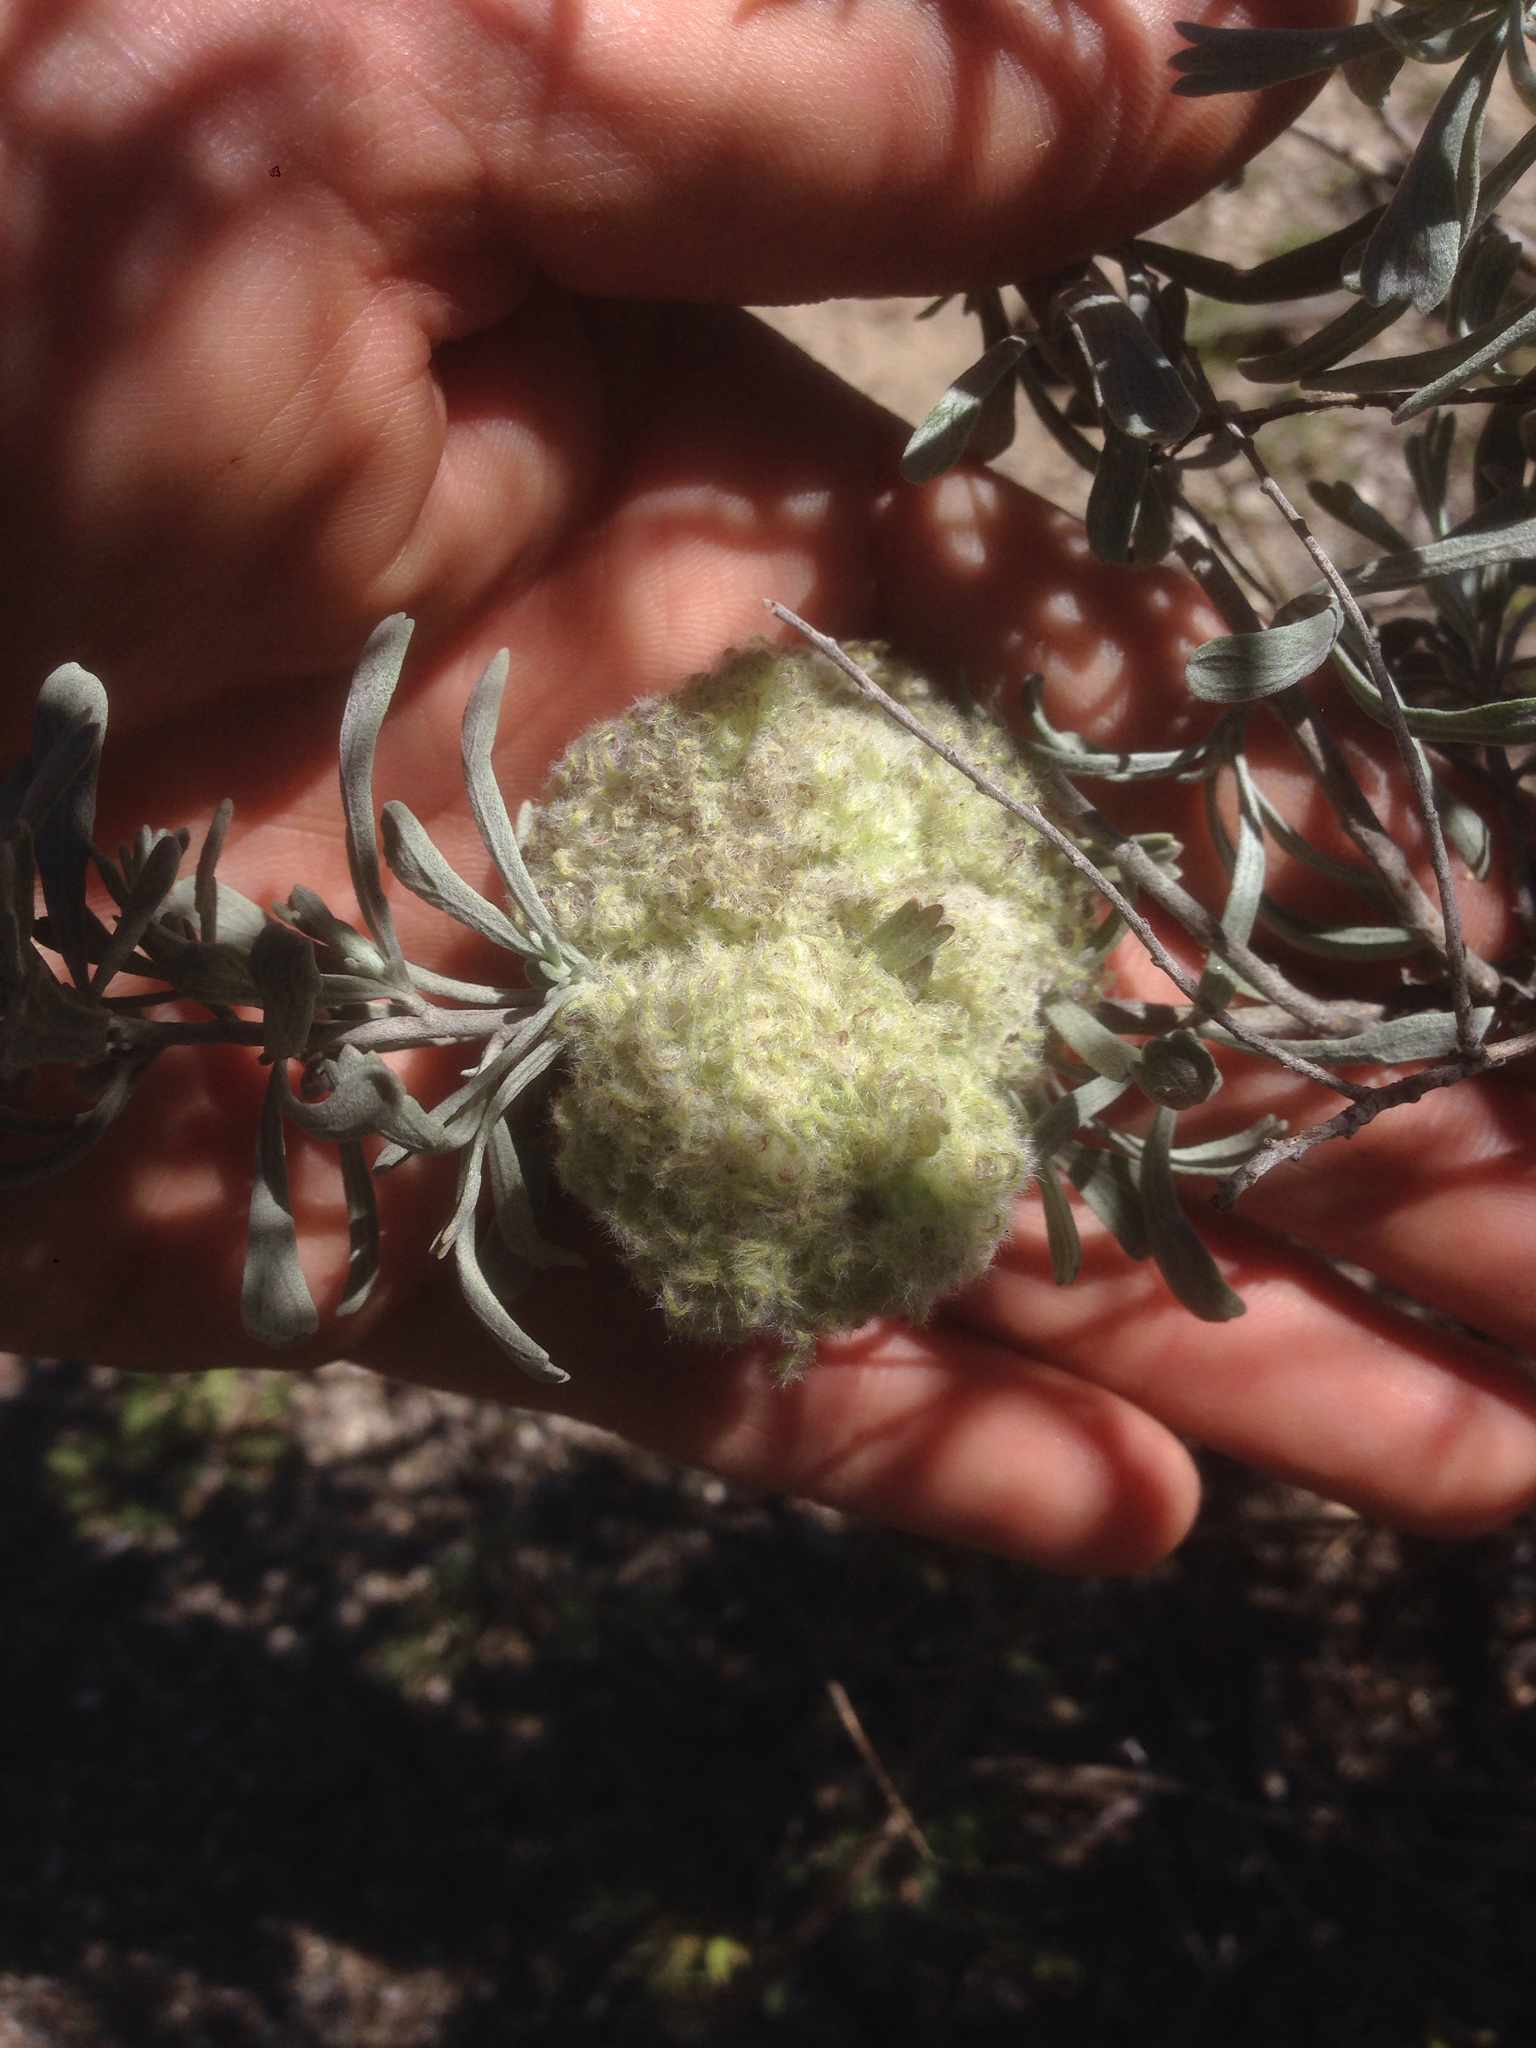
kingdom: Animalia
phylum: Arthropoda
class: Insecta
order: Diptera
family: Cecidomyiidae
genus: Rhopalomyia
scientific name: Rhopalomyia medusirrasa
